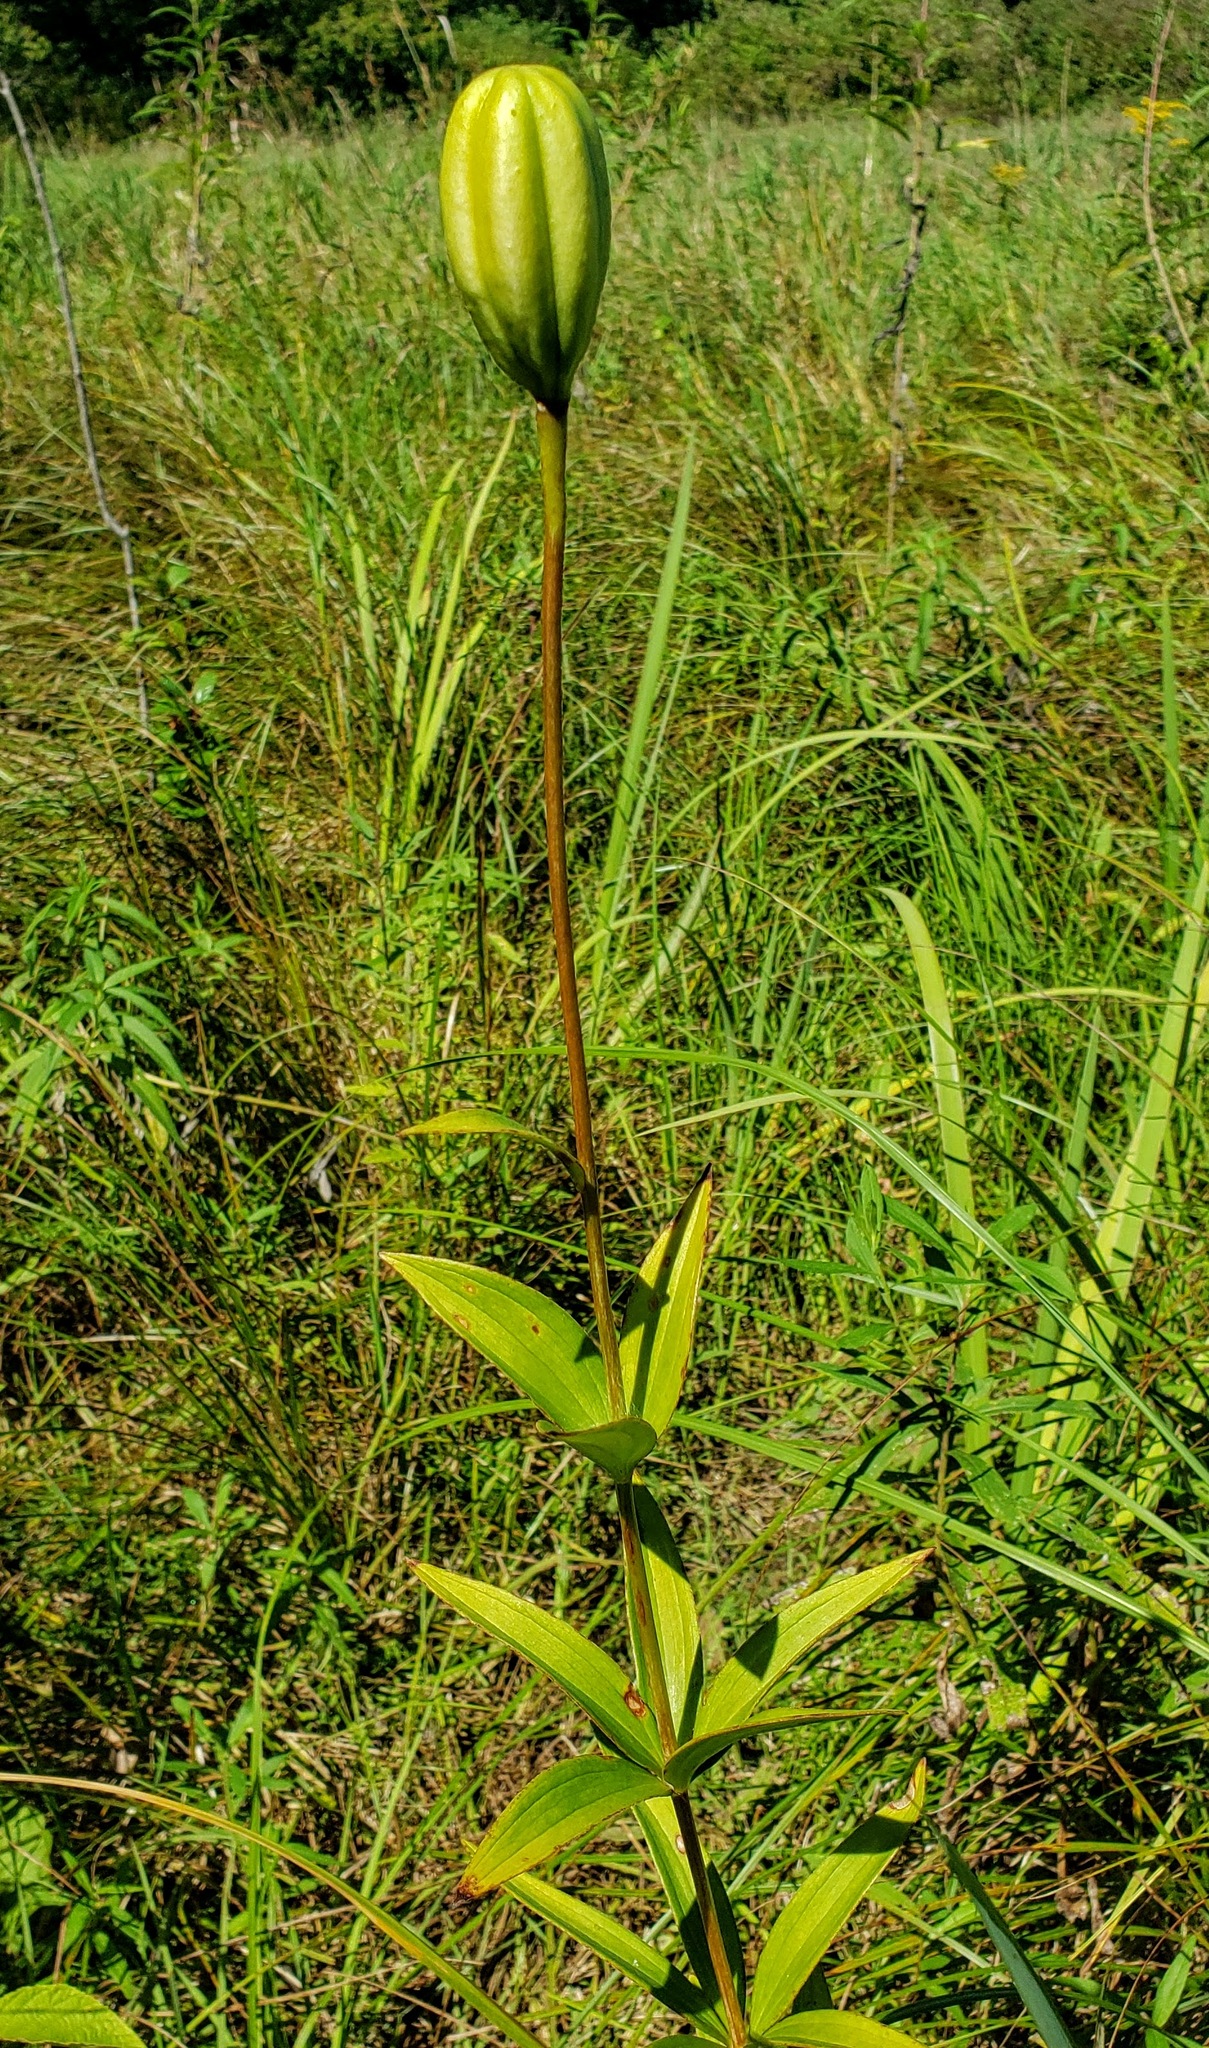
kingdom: Plantae
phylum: Tracheophyta
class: Liliopsida
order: Liliales
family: Liliaceae
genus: Lilium
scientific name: Lilium michiganense
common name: Michigan lily
